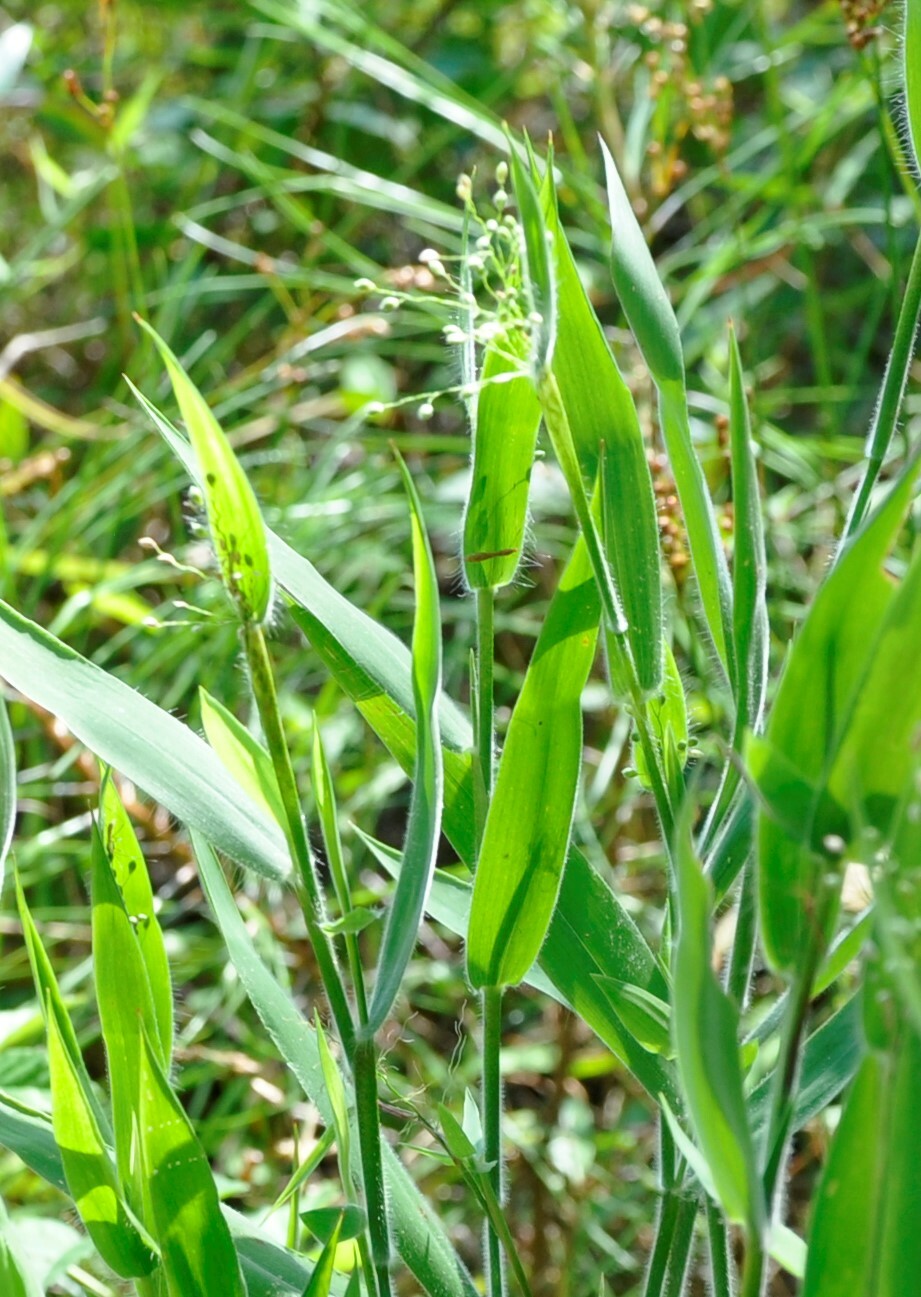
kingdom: Plantae
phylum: Tracheophyta
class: Liliopsida
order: Poales
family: Poaceae
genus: Dichanthelium
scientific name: Dichanthelium scoparium
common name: Velvety panic grass
